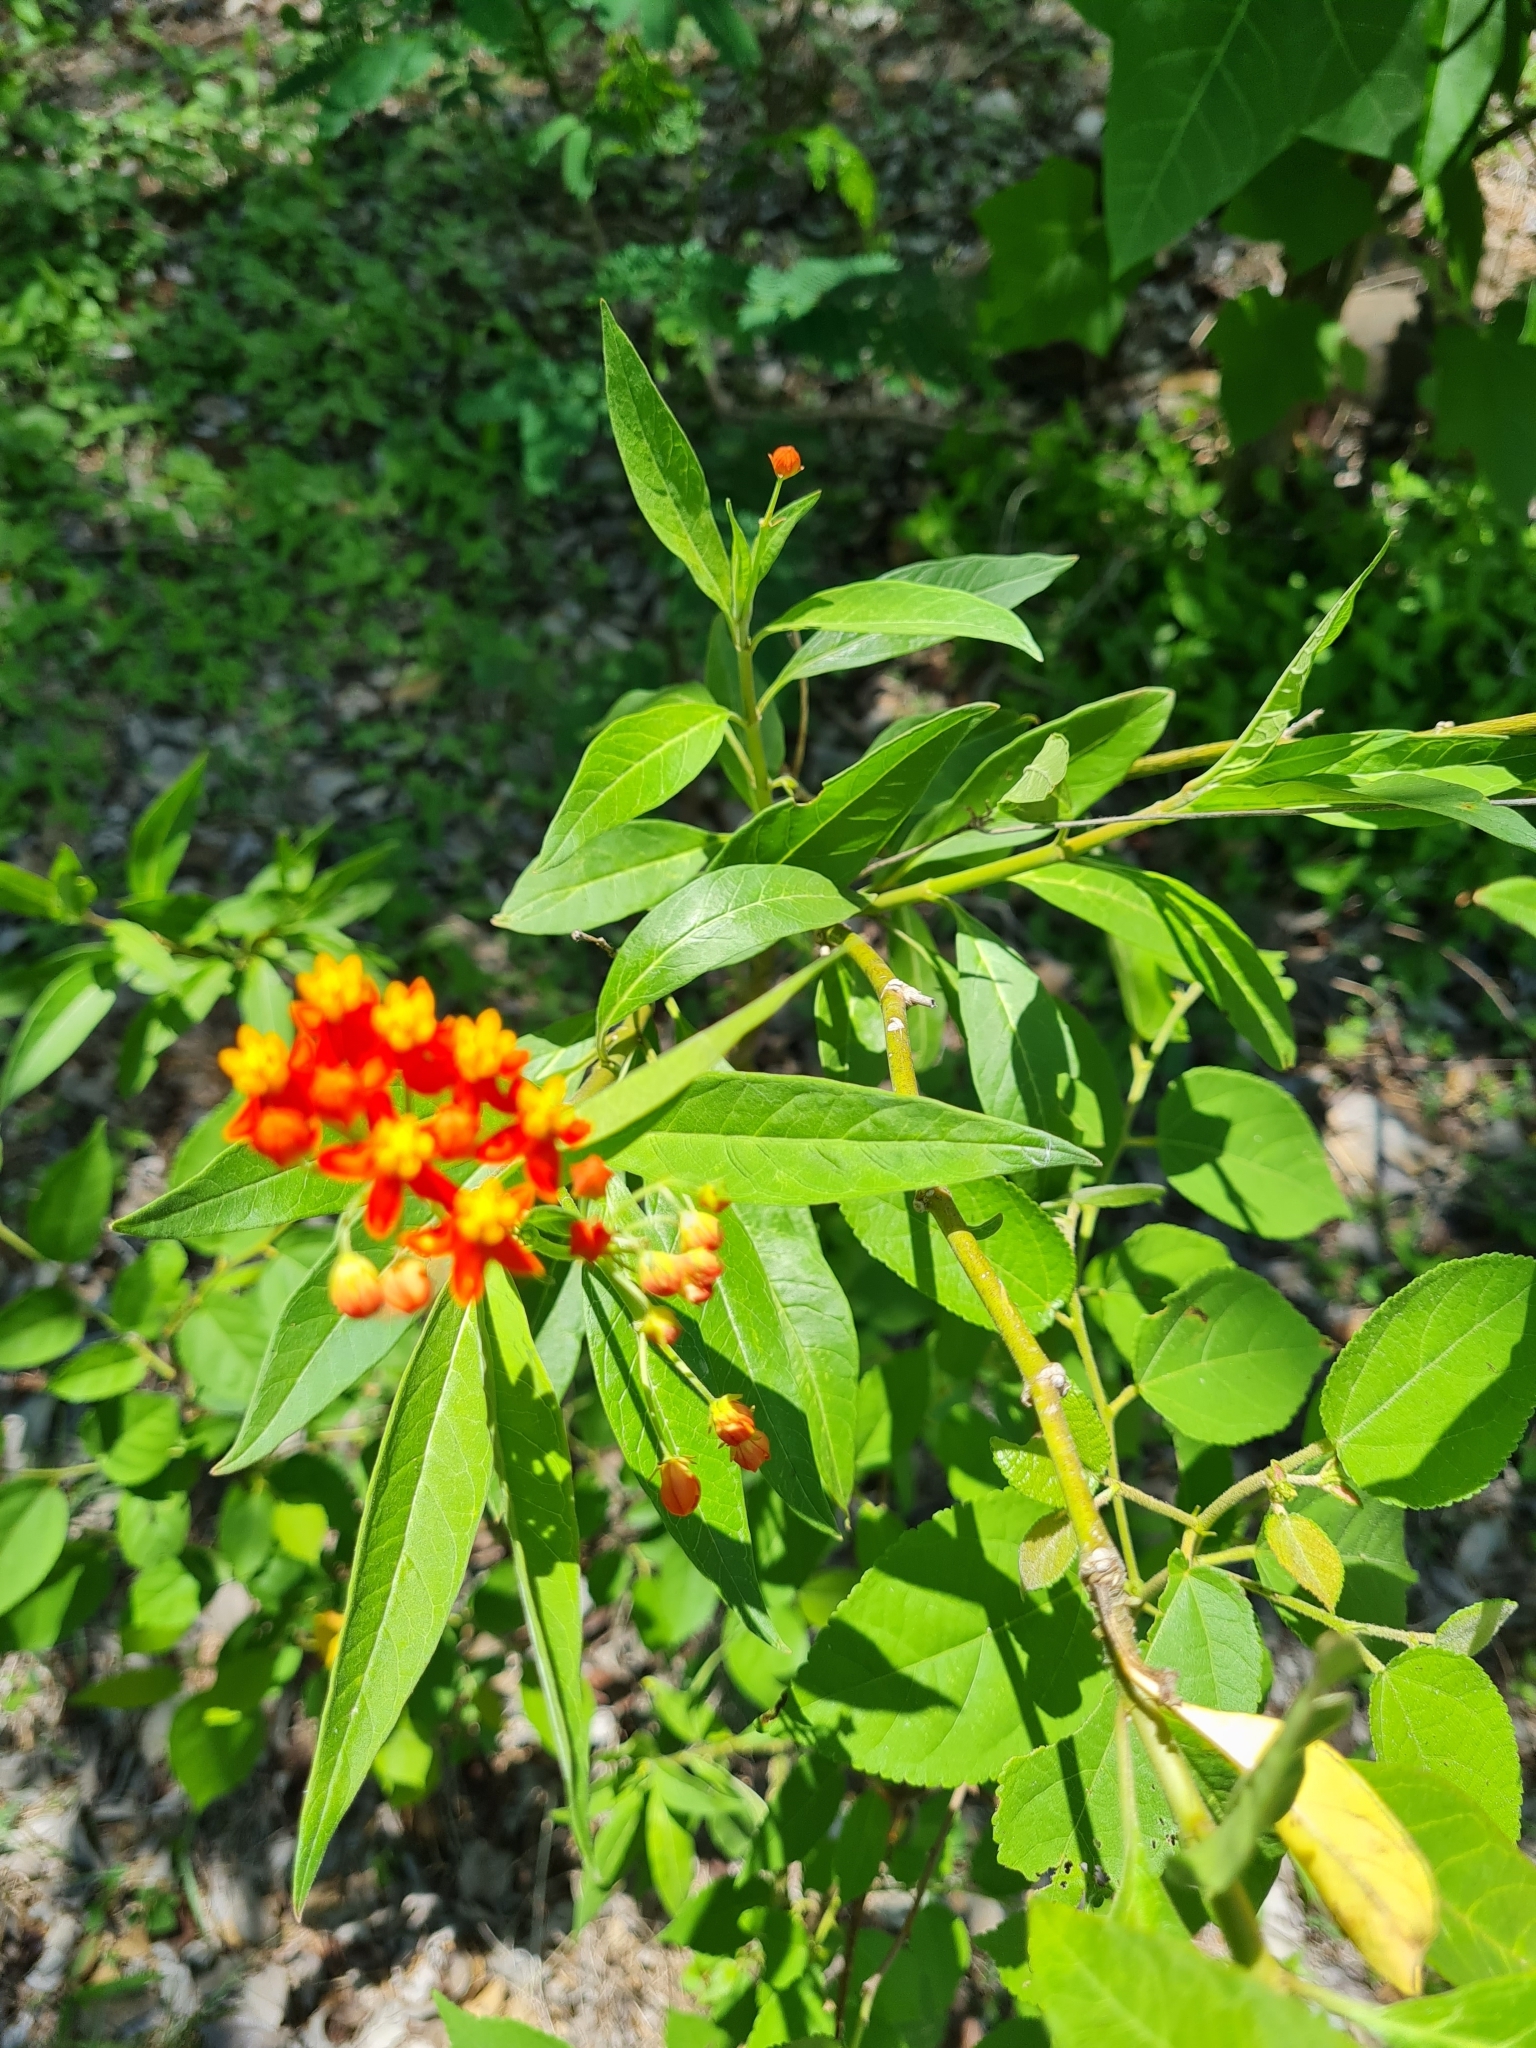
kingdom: Plantae
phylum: Tracheophyta
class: Magnoliopsida
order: Gentianales
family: Apocynaceae
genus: Asclepias
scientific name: Asclepias curassavica
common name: Bloodflower
